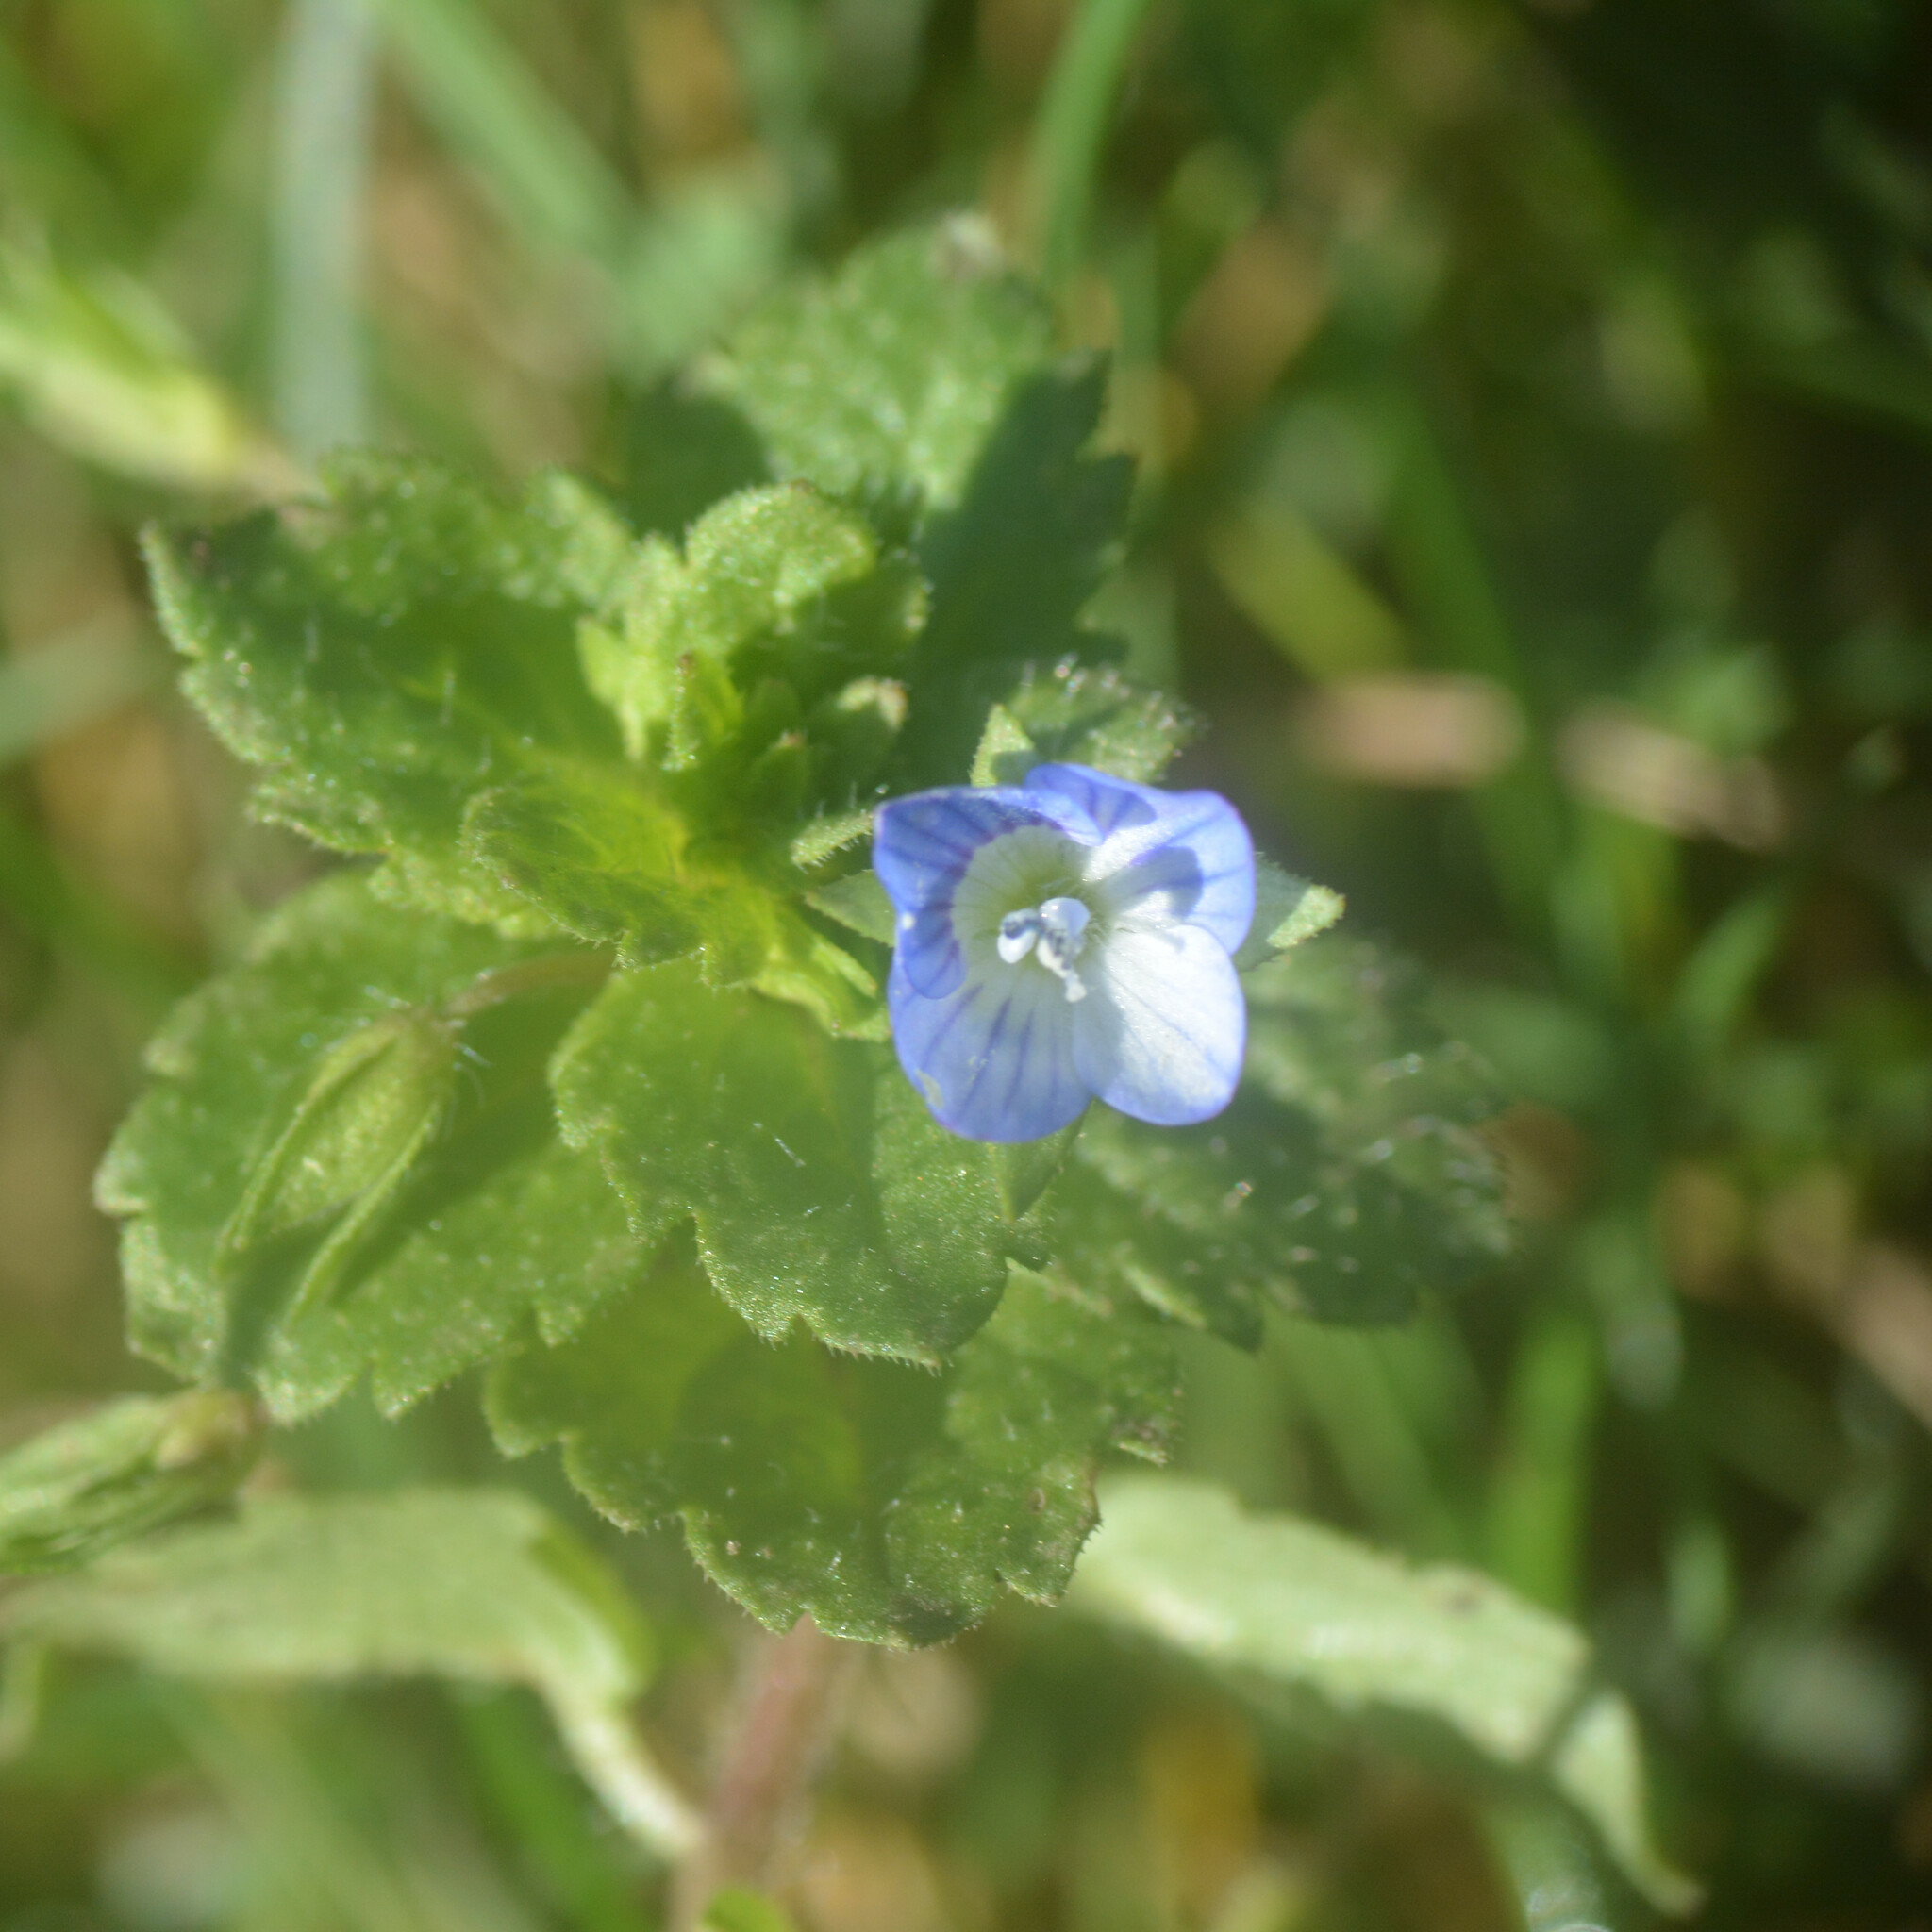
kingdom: Plantae
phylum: Tracheophyta
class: Magnoliopsida
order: Lamiales
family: Plantaginaceae
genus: Veronica
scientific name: Veronica persica
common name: Common field-speedwell
